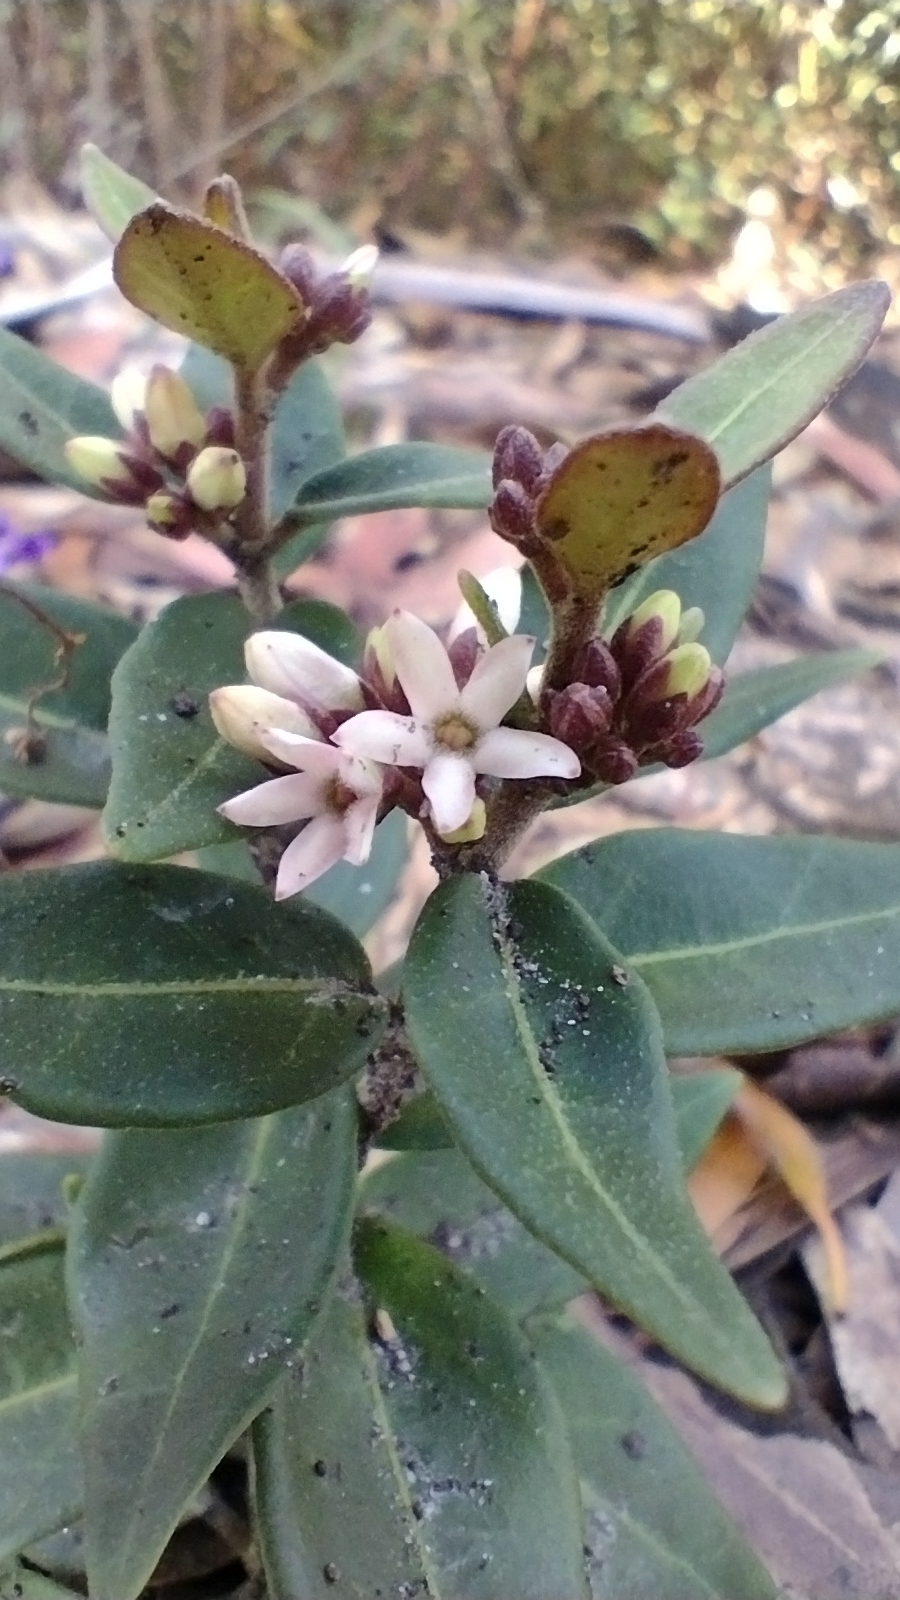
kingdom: Plantae
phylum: Tracheophyta
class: Magnoliopsida
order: Gentianales
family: Apocynaceae
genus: Leichhardtia
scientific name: Leichhardtia suaveolens
